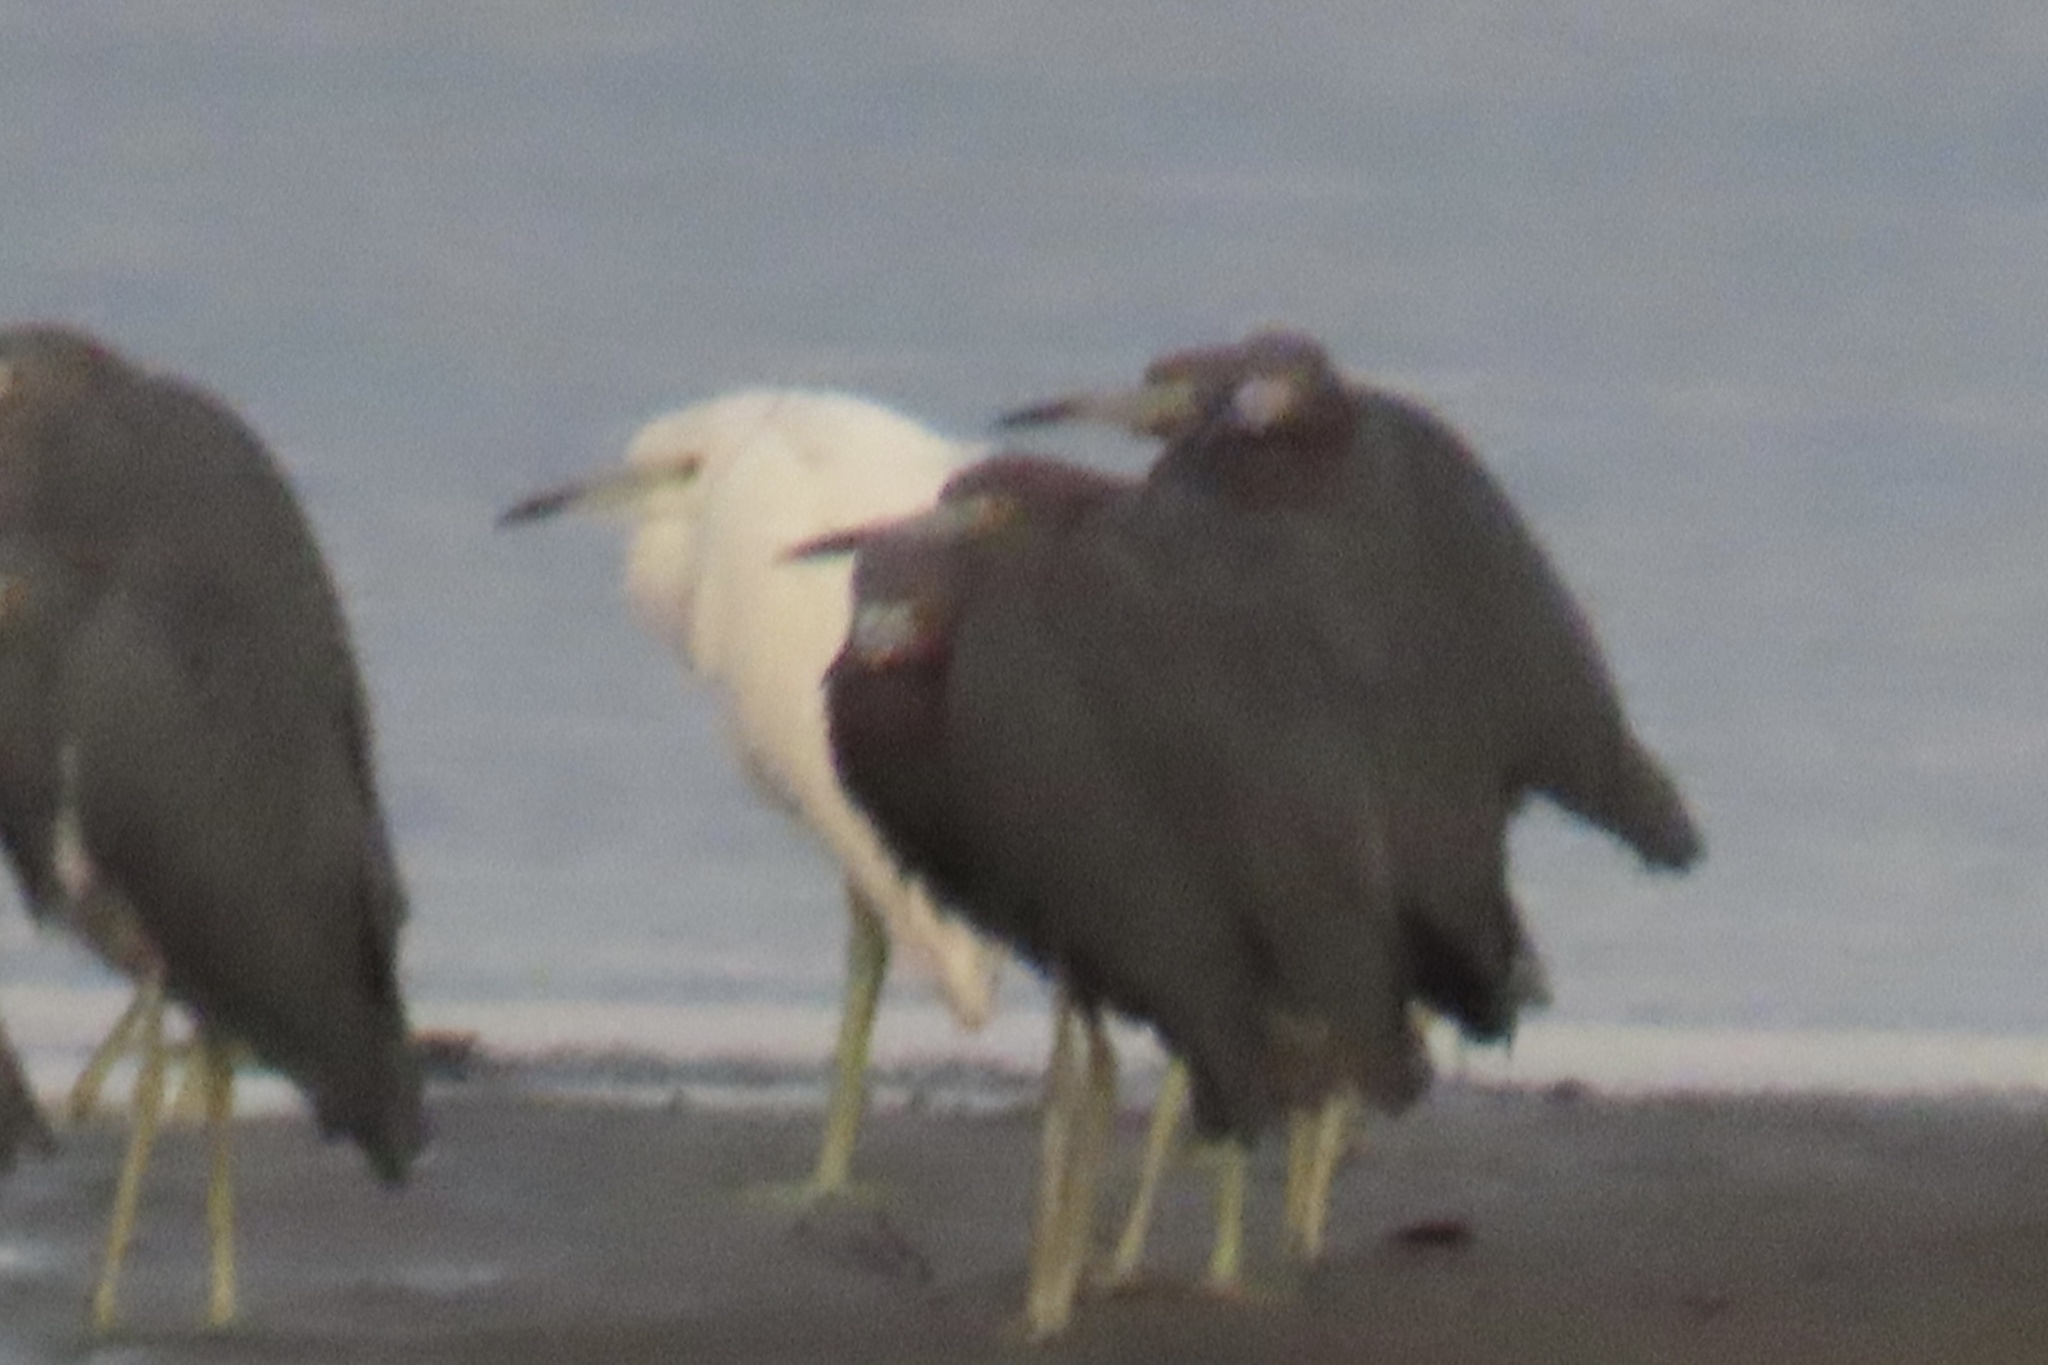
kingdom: Animalia
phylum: Chordata
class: Aves
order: Pelecaniformes
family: Ardeidae
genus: Egretta
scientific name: Egretta caerulea
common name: Little blue heron
